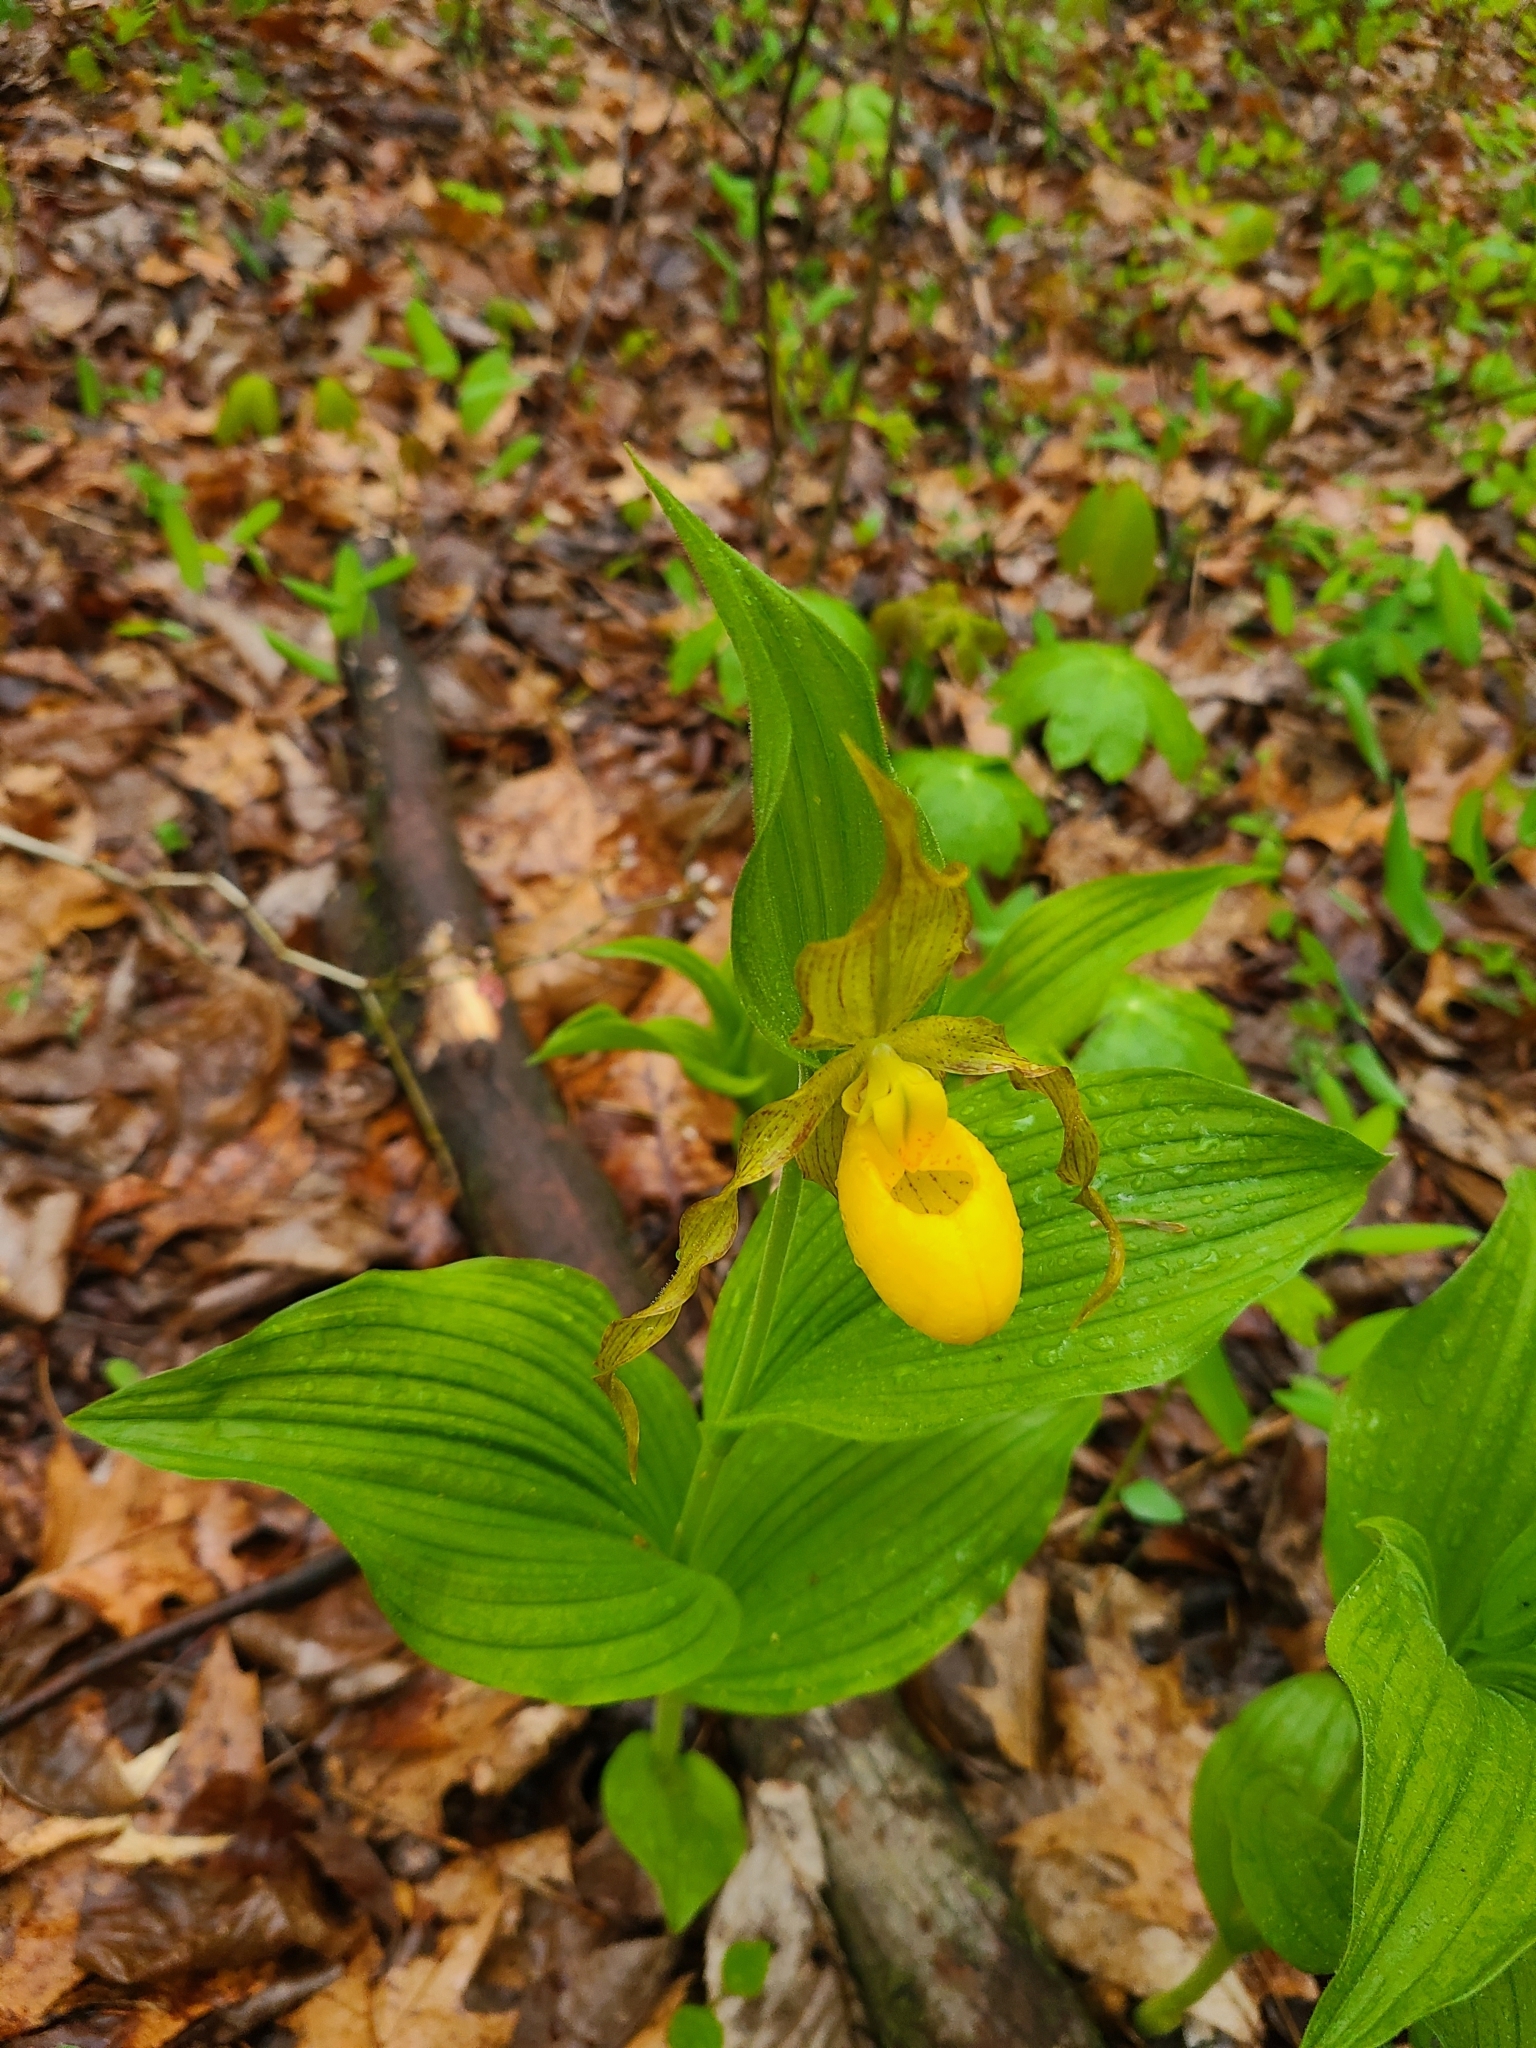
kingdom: Plantae
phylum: Tracheophyta
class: Liliopsida
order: Asparagales
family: Orchidaceae
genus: Cypripedium
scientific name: Cypripedium parviflorum
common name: American yellow lady's-slipper
